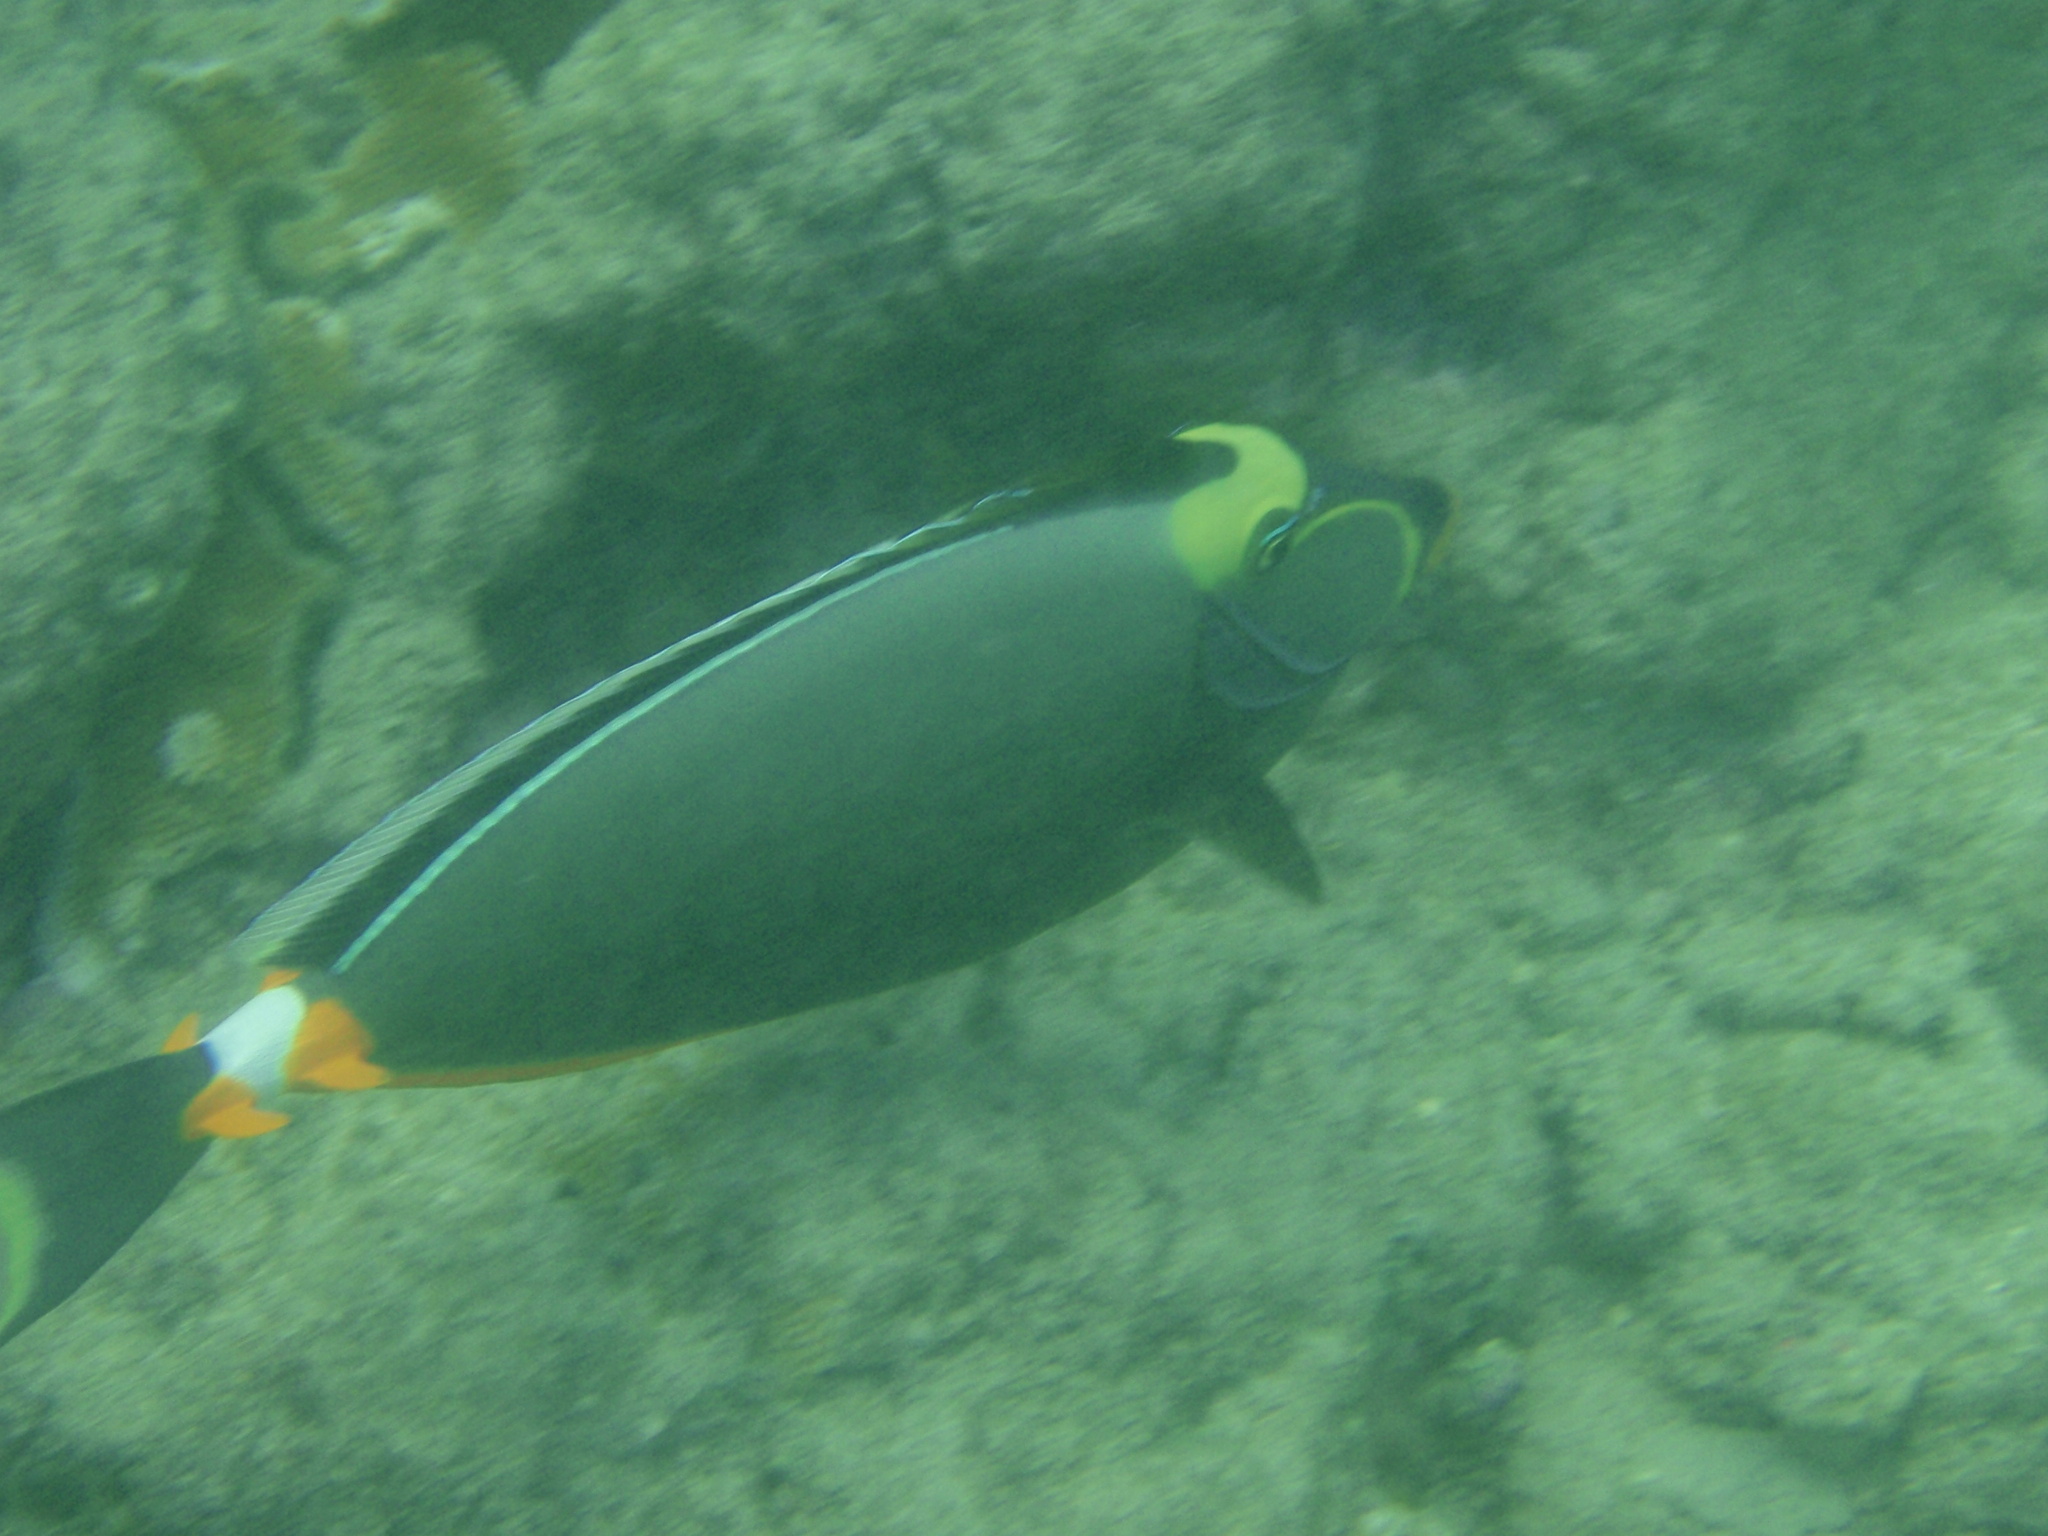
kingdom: Animalia
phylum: Chordata
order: Perciformes
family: Acanthuridae
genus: Naso
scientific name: Naso lituratus
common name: Orangespine unicornfish
